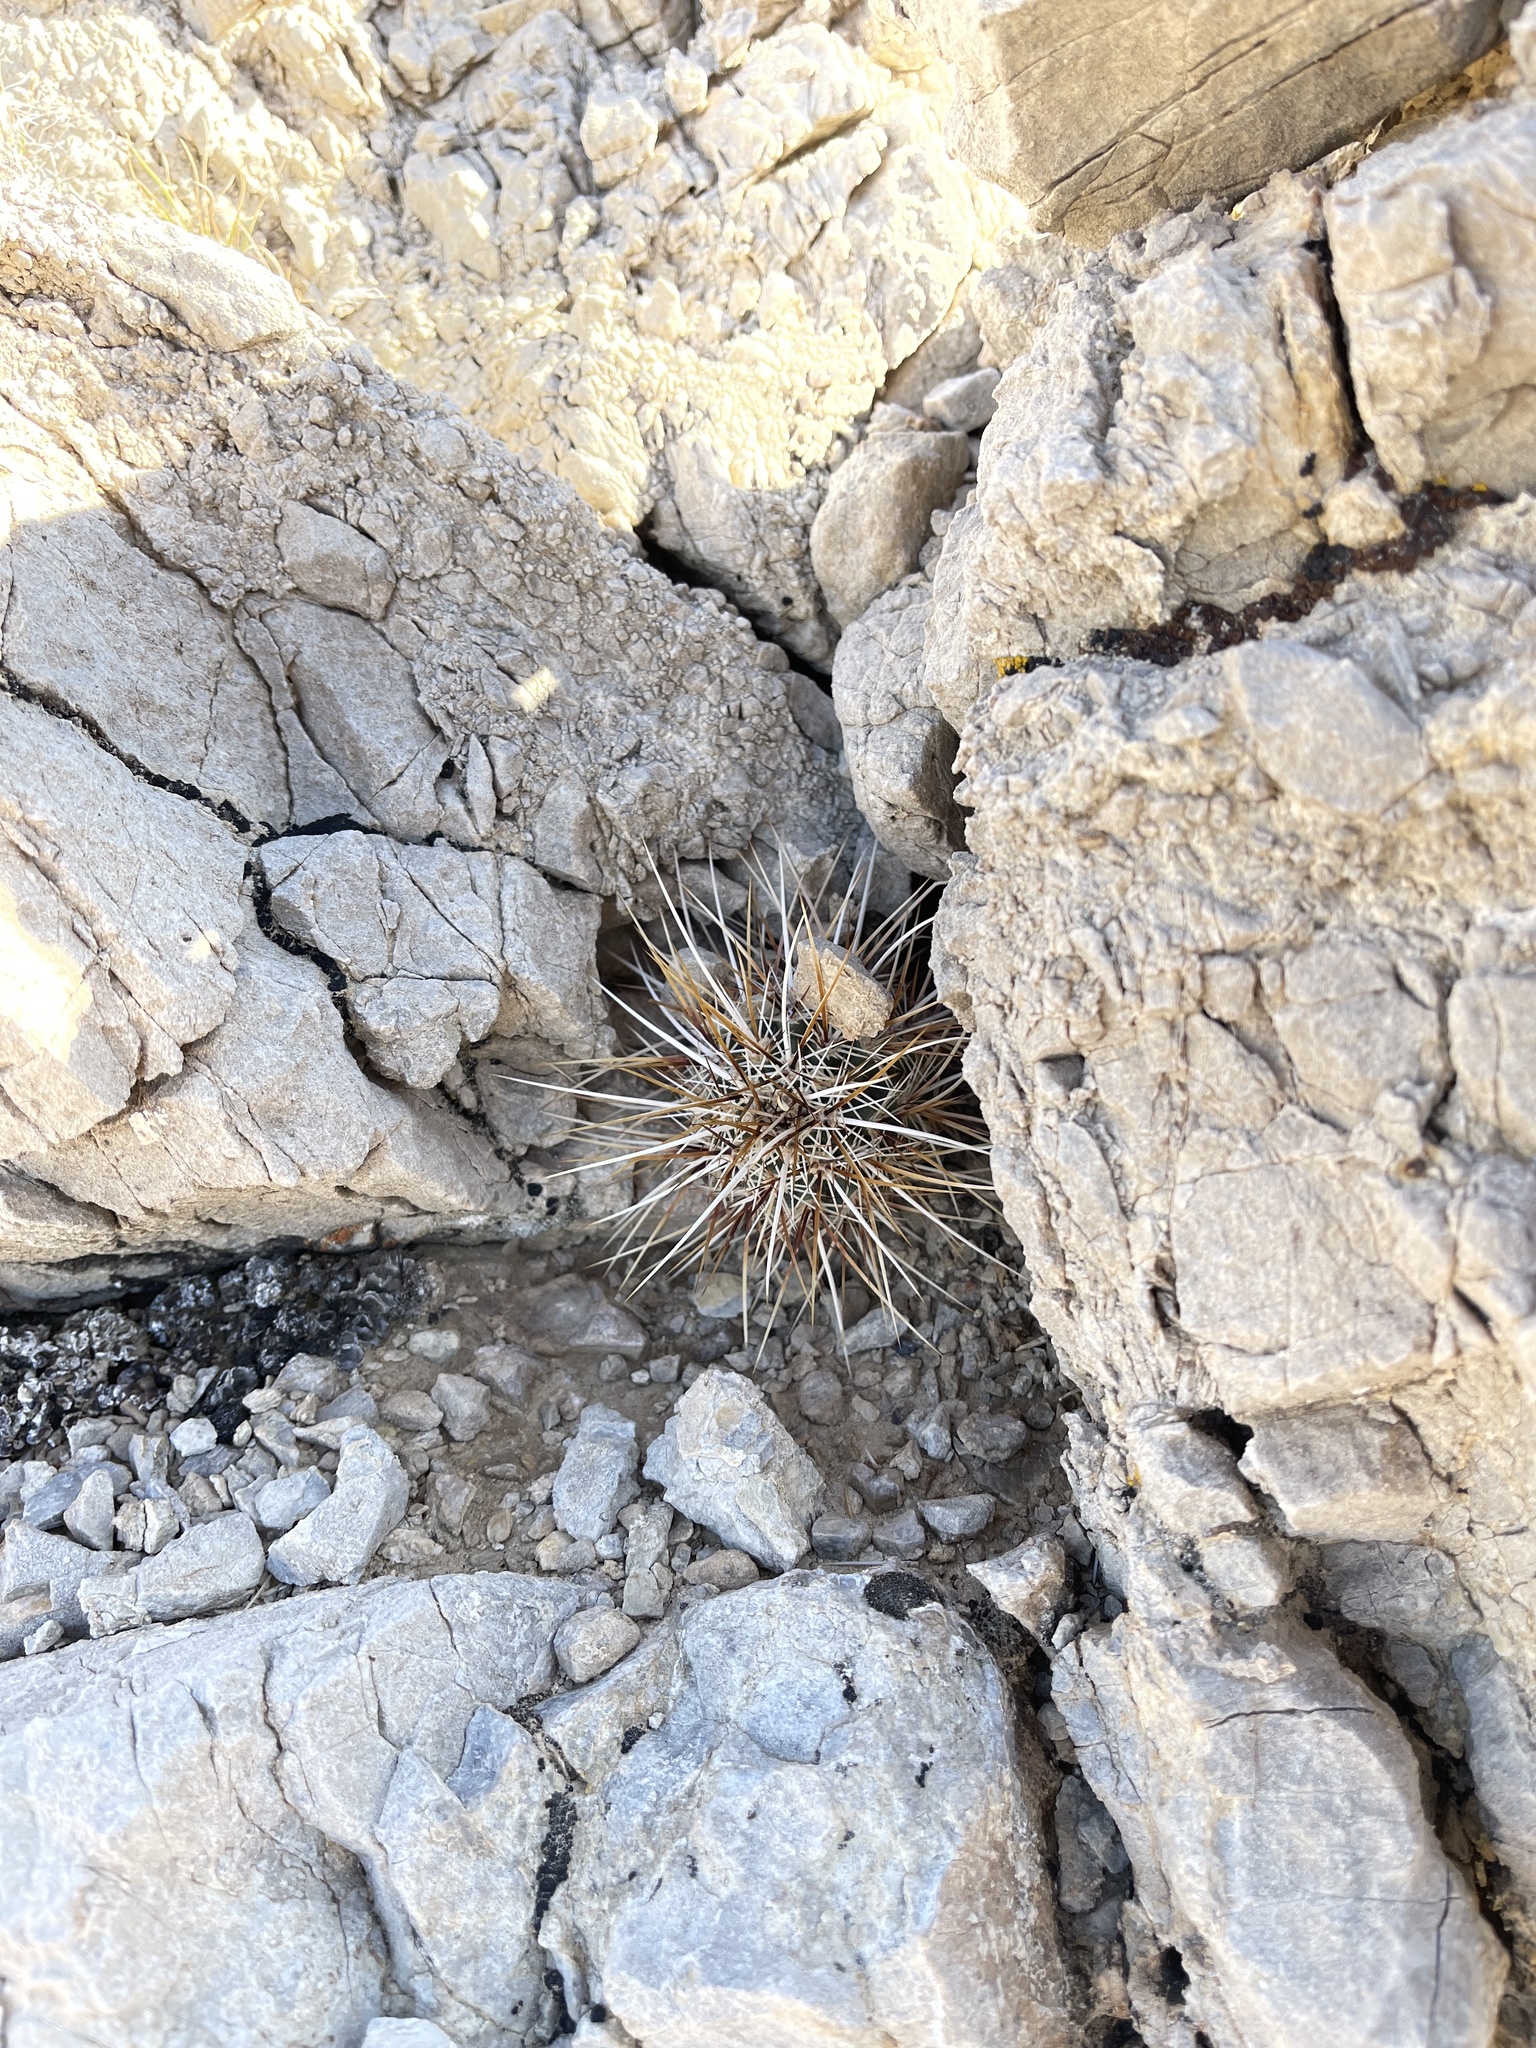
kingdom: Plantae
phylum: Tracheophyta
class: Magnoliopsida
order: Caryophyllales
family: Cactaceae
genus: Echinocereus
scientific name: Echinocereus engelmannii
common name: Engelmann's hedgehog cactus
